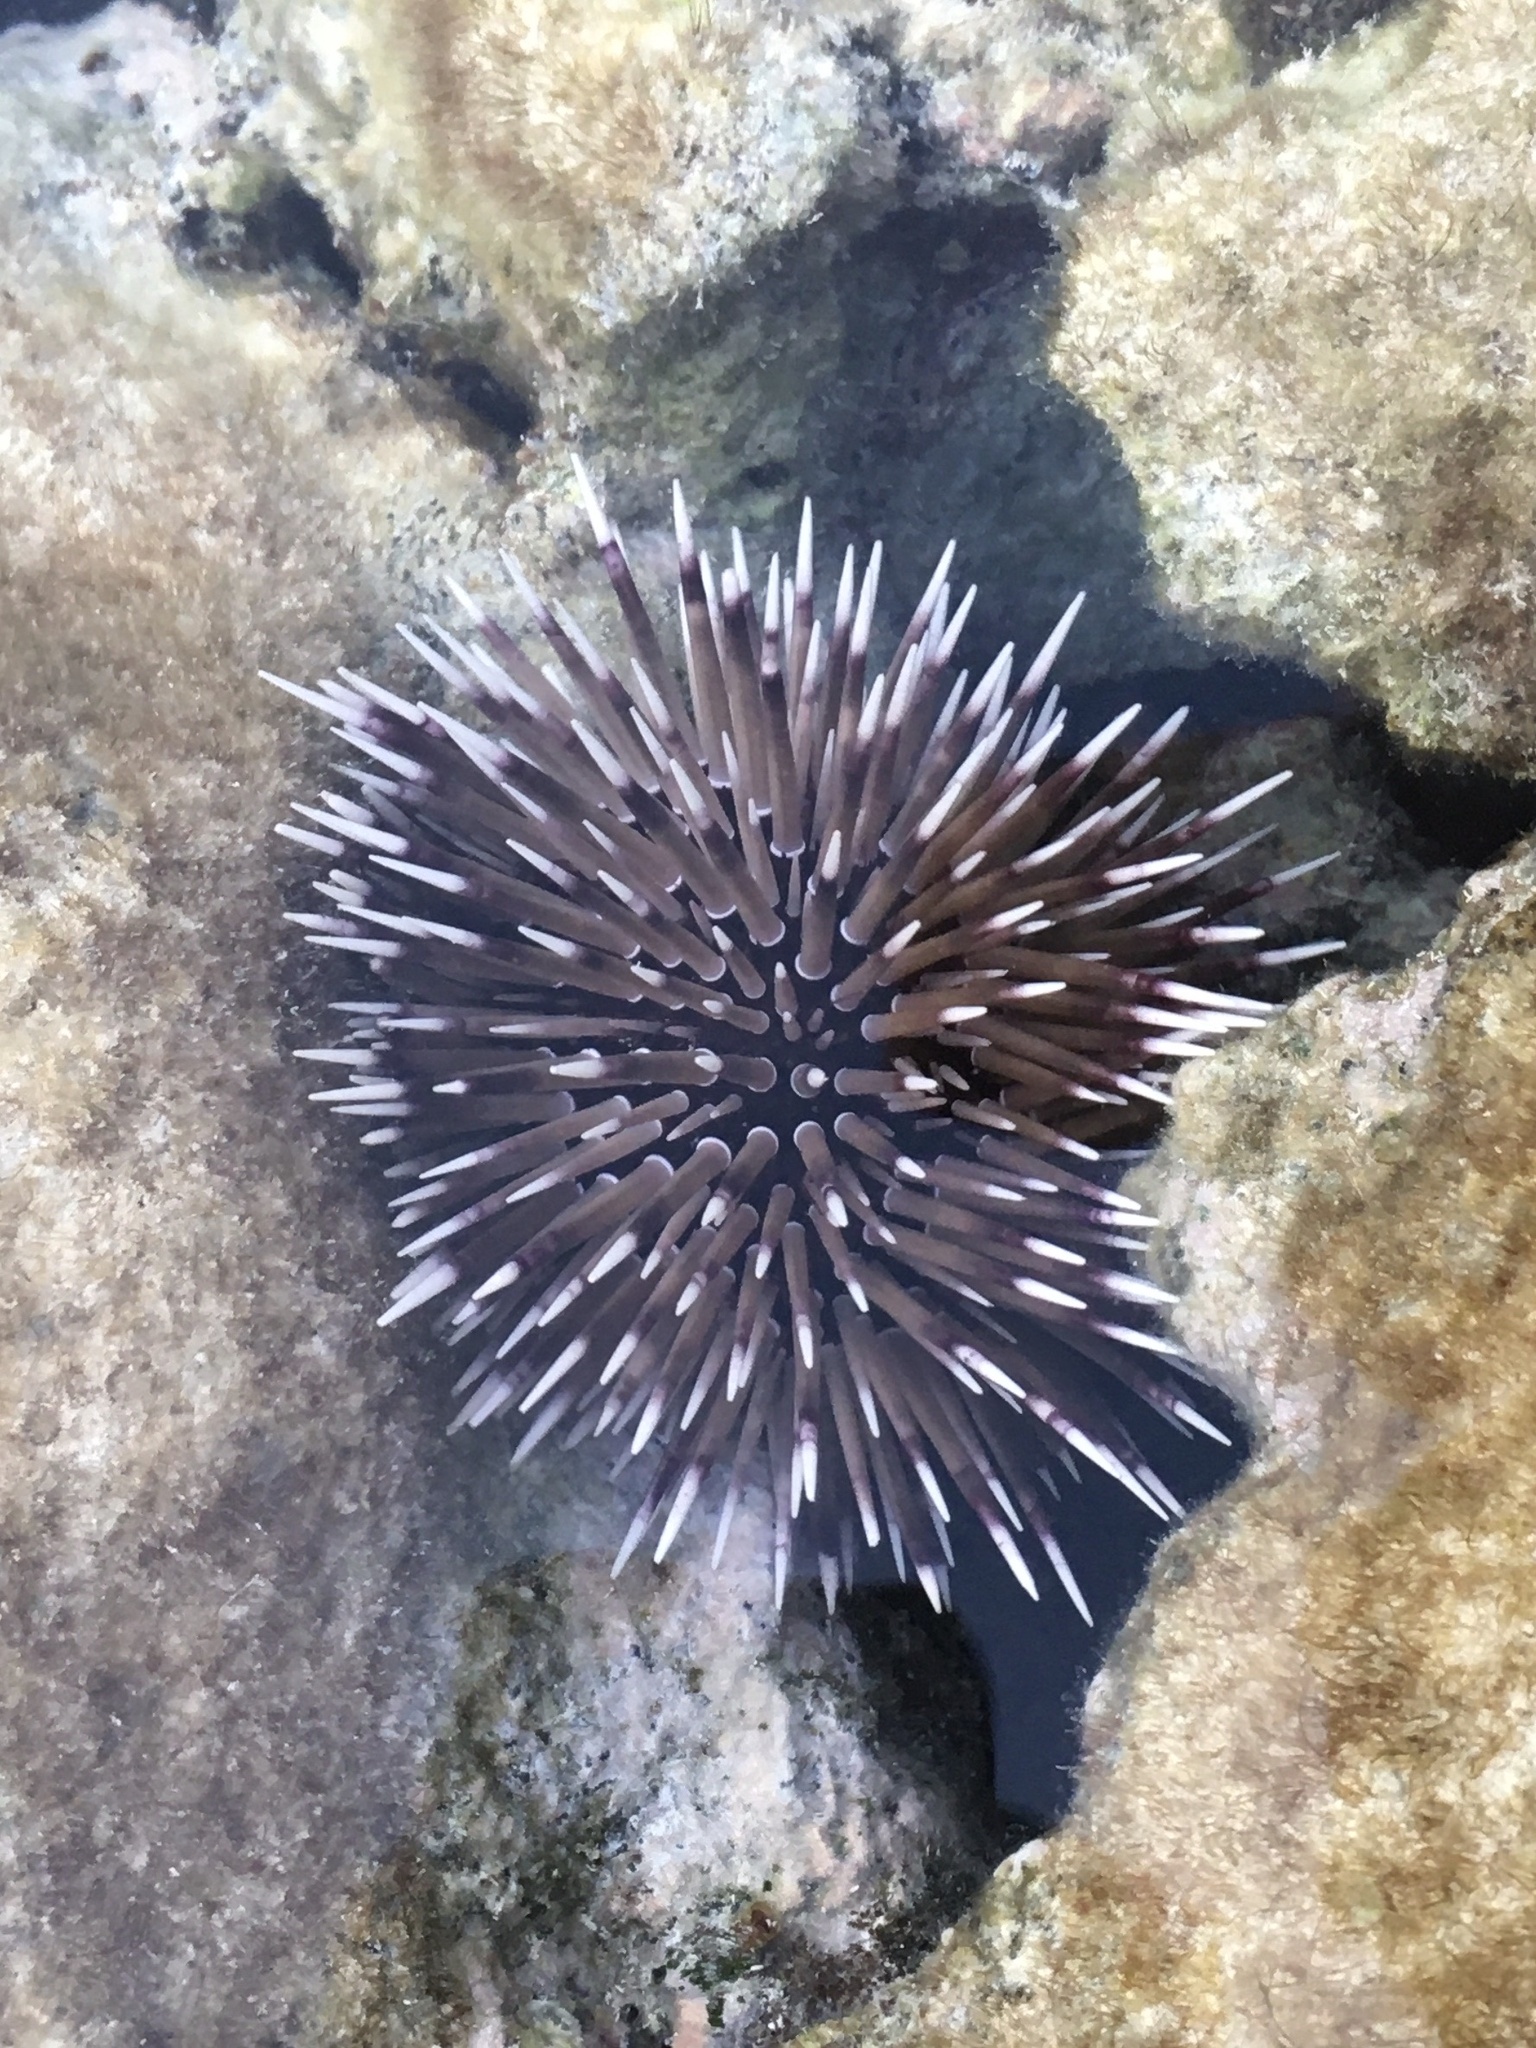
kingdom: Animalia
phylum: Echinodermata
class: Echinoidea
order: Camarodonta
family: Echinometridae
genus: Echinometra
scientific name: Echinometra mathaei
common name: Rock-boring urchin
